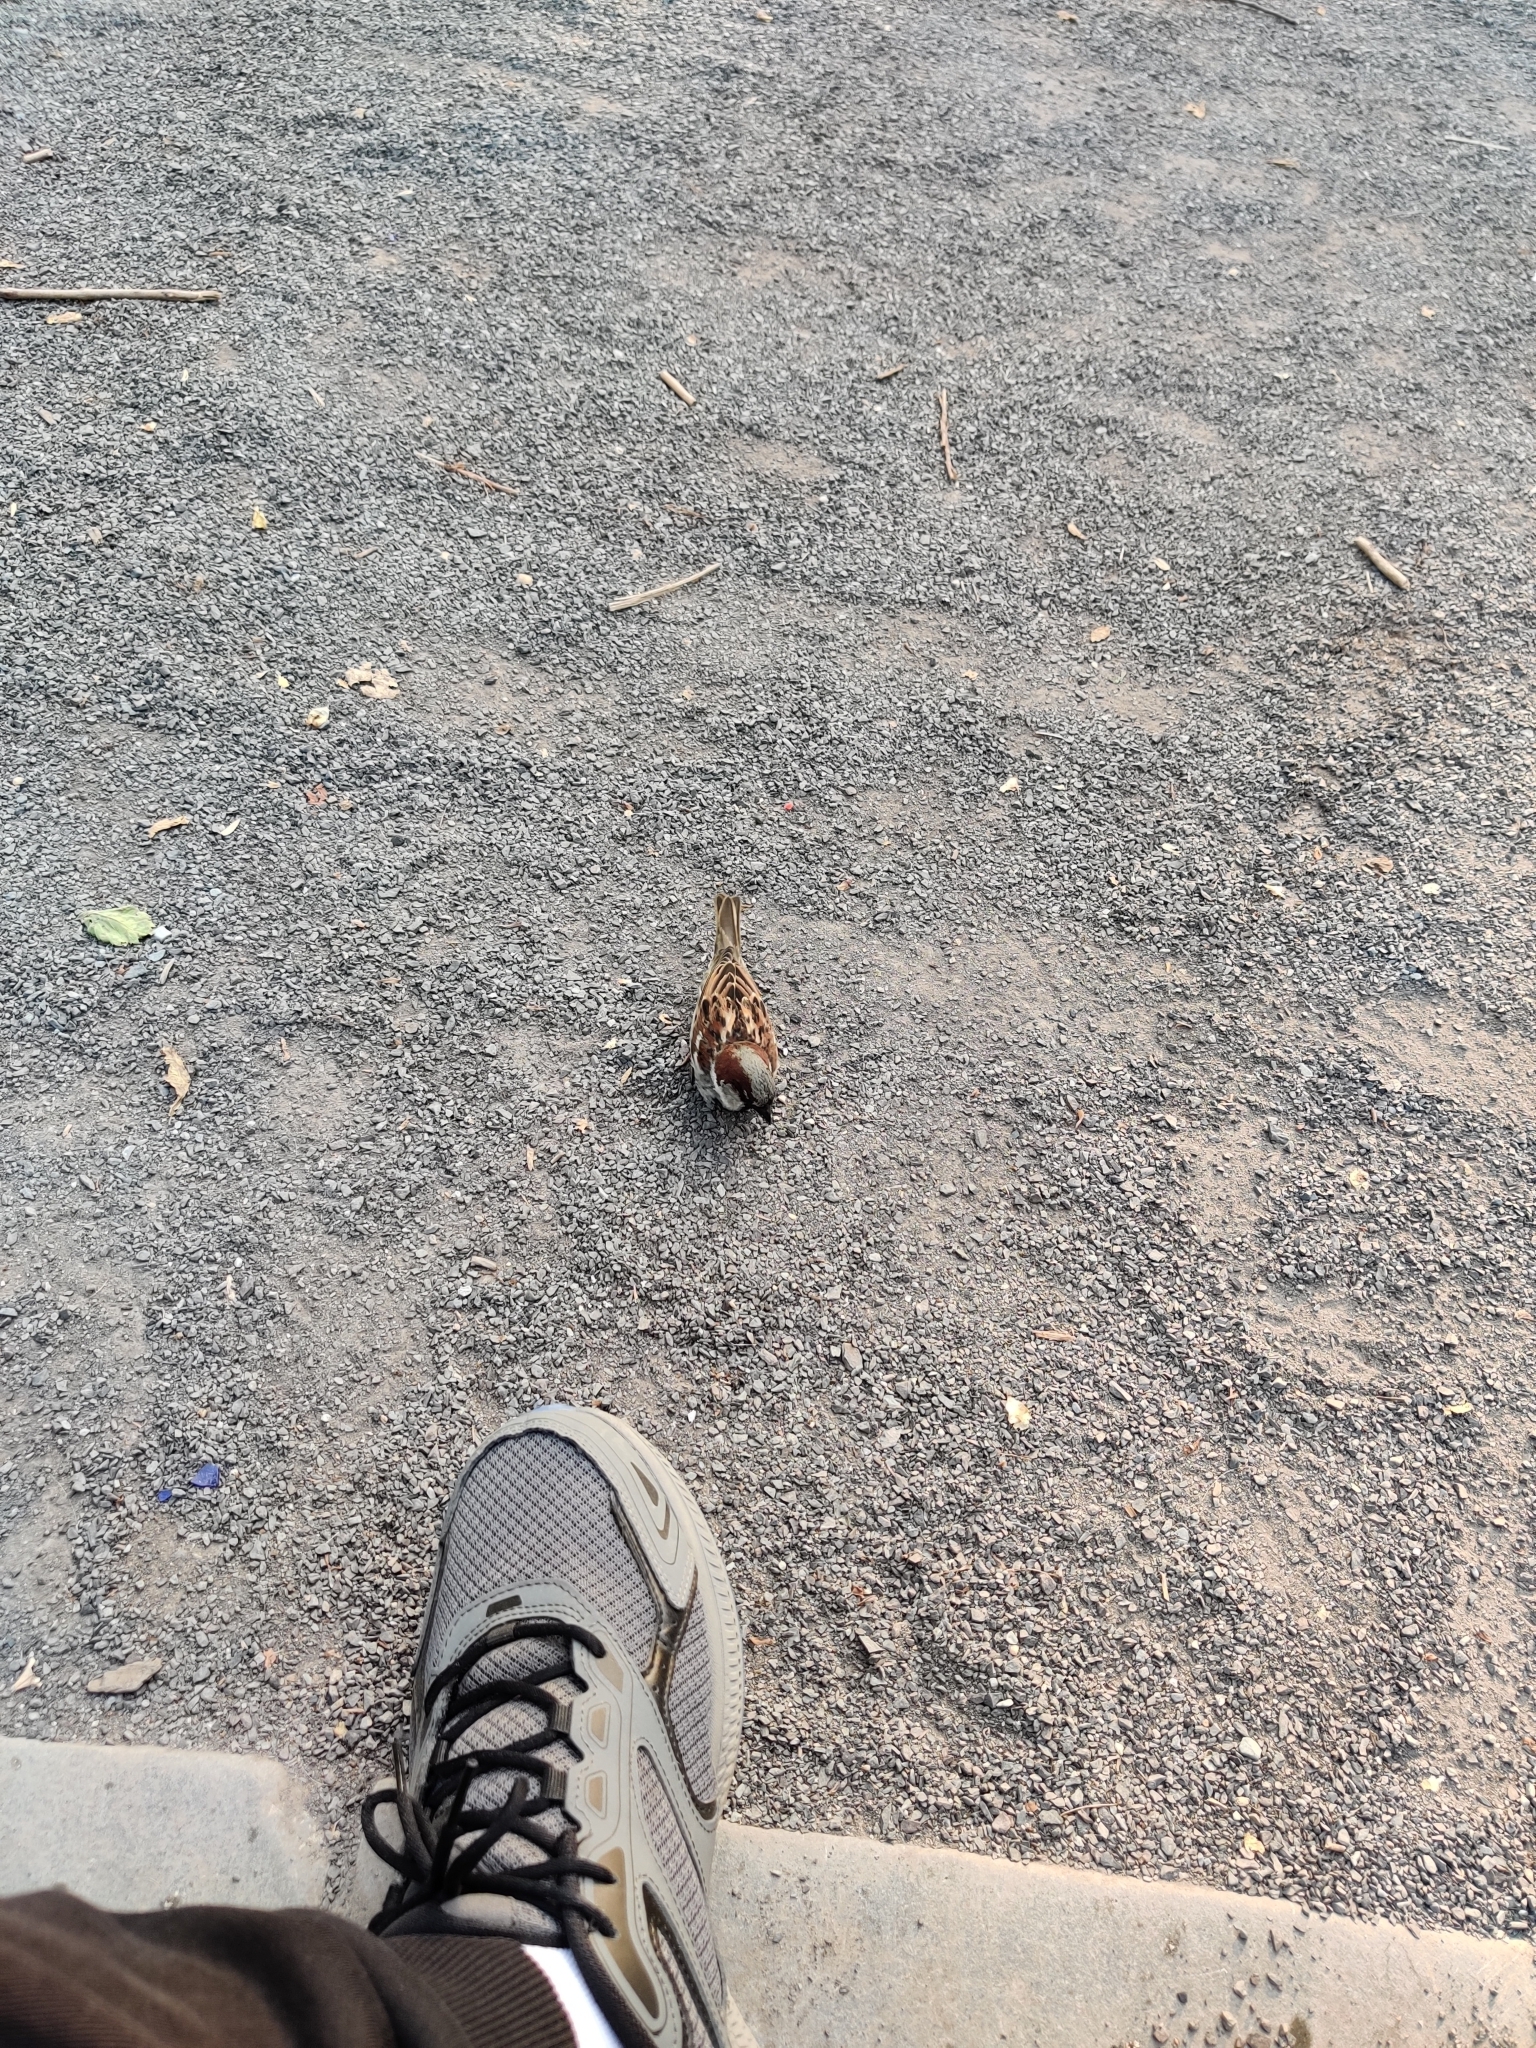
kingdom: Animalia
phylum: Chordata
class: Aves
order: Passeriformes
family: Passeridae
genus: Passer
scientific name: Passer domesticus
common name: House sparrow
